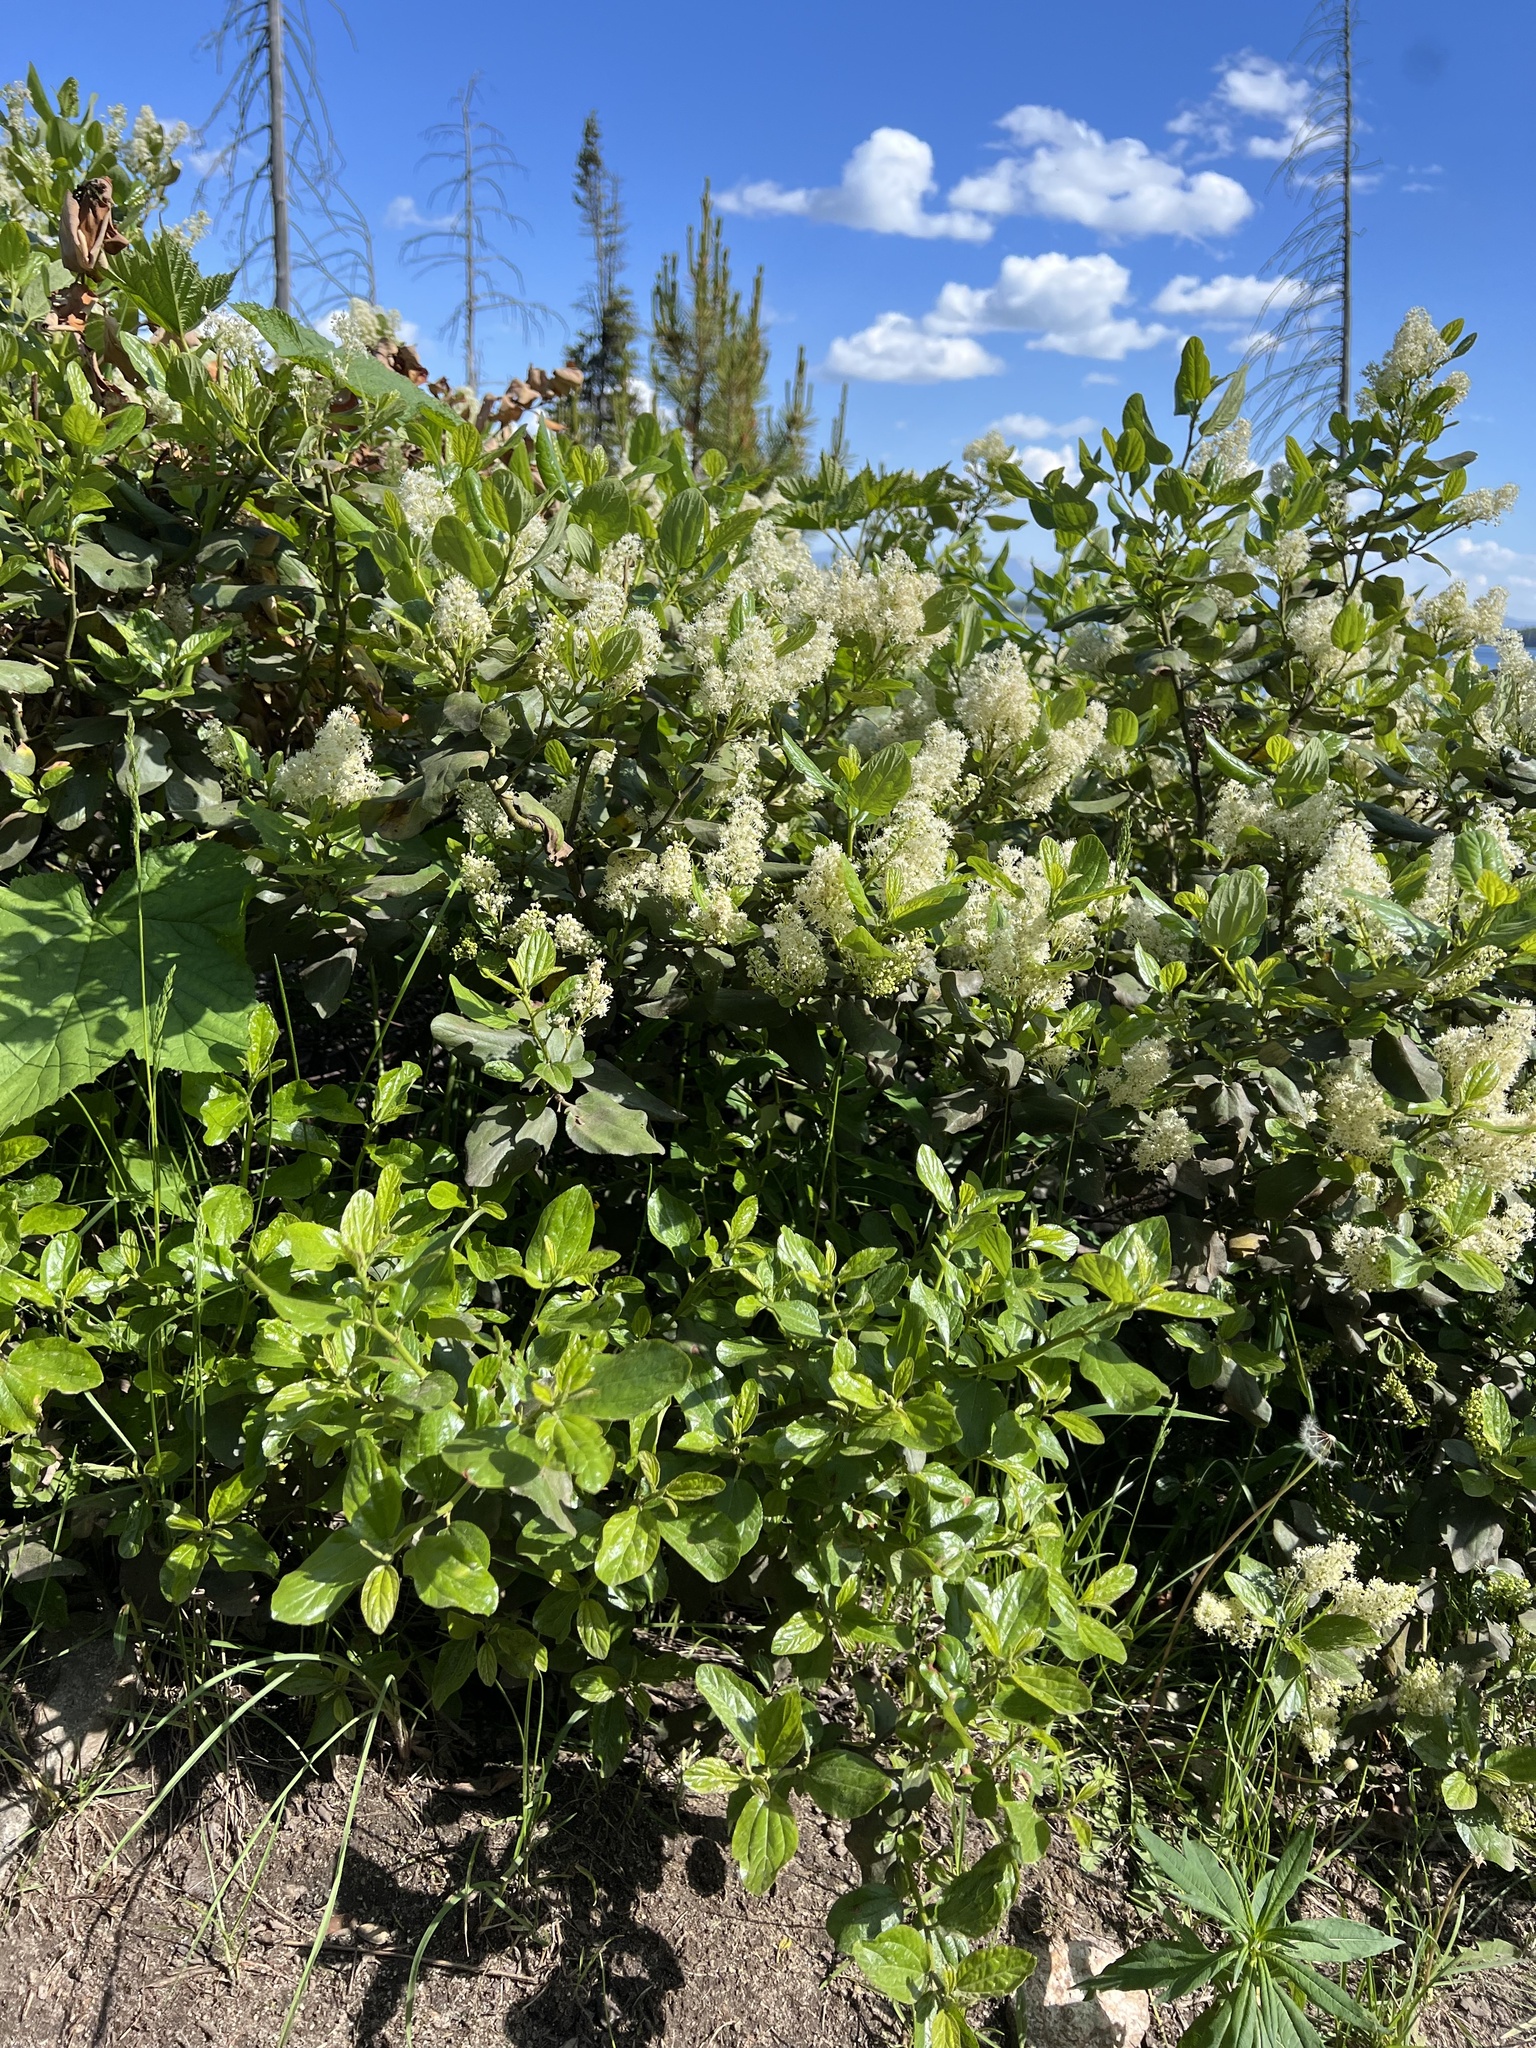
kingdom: Plantae
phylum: Tracheophyta
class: Magnoliopsida
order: Rosales
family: Rhamnaceae
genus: Ceanothus
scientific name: Ceanothus velutinus
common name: Snowbrush
